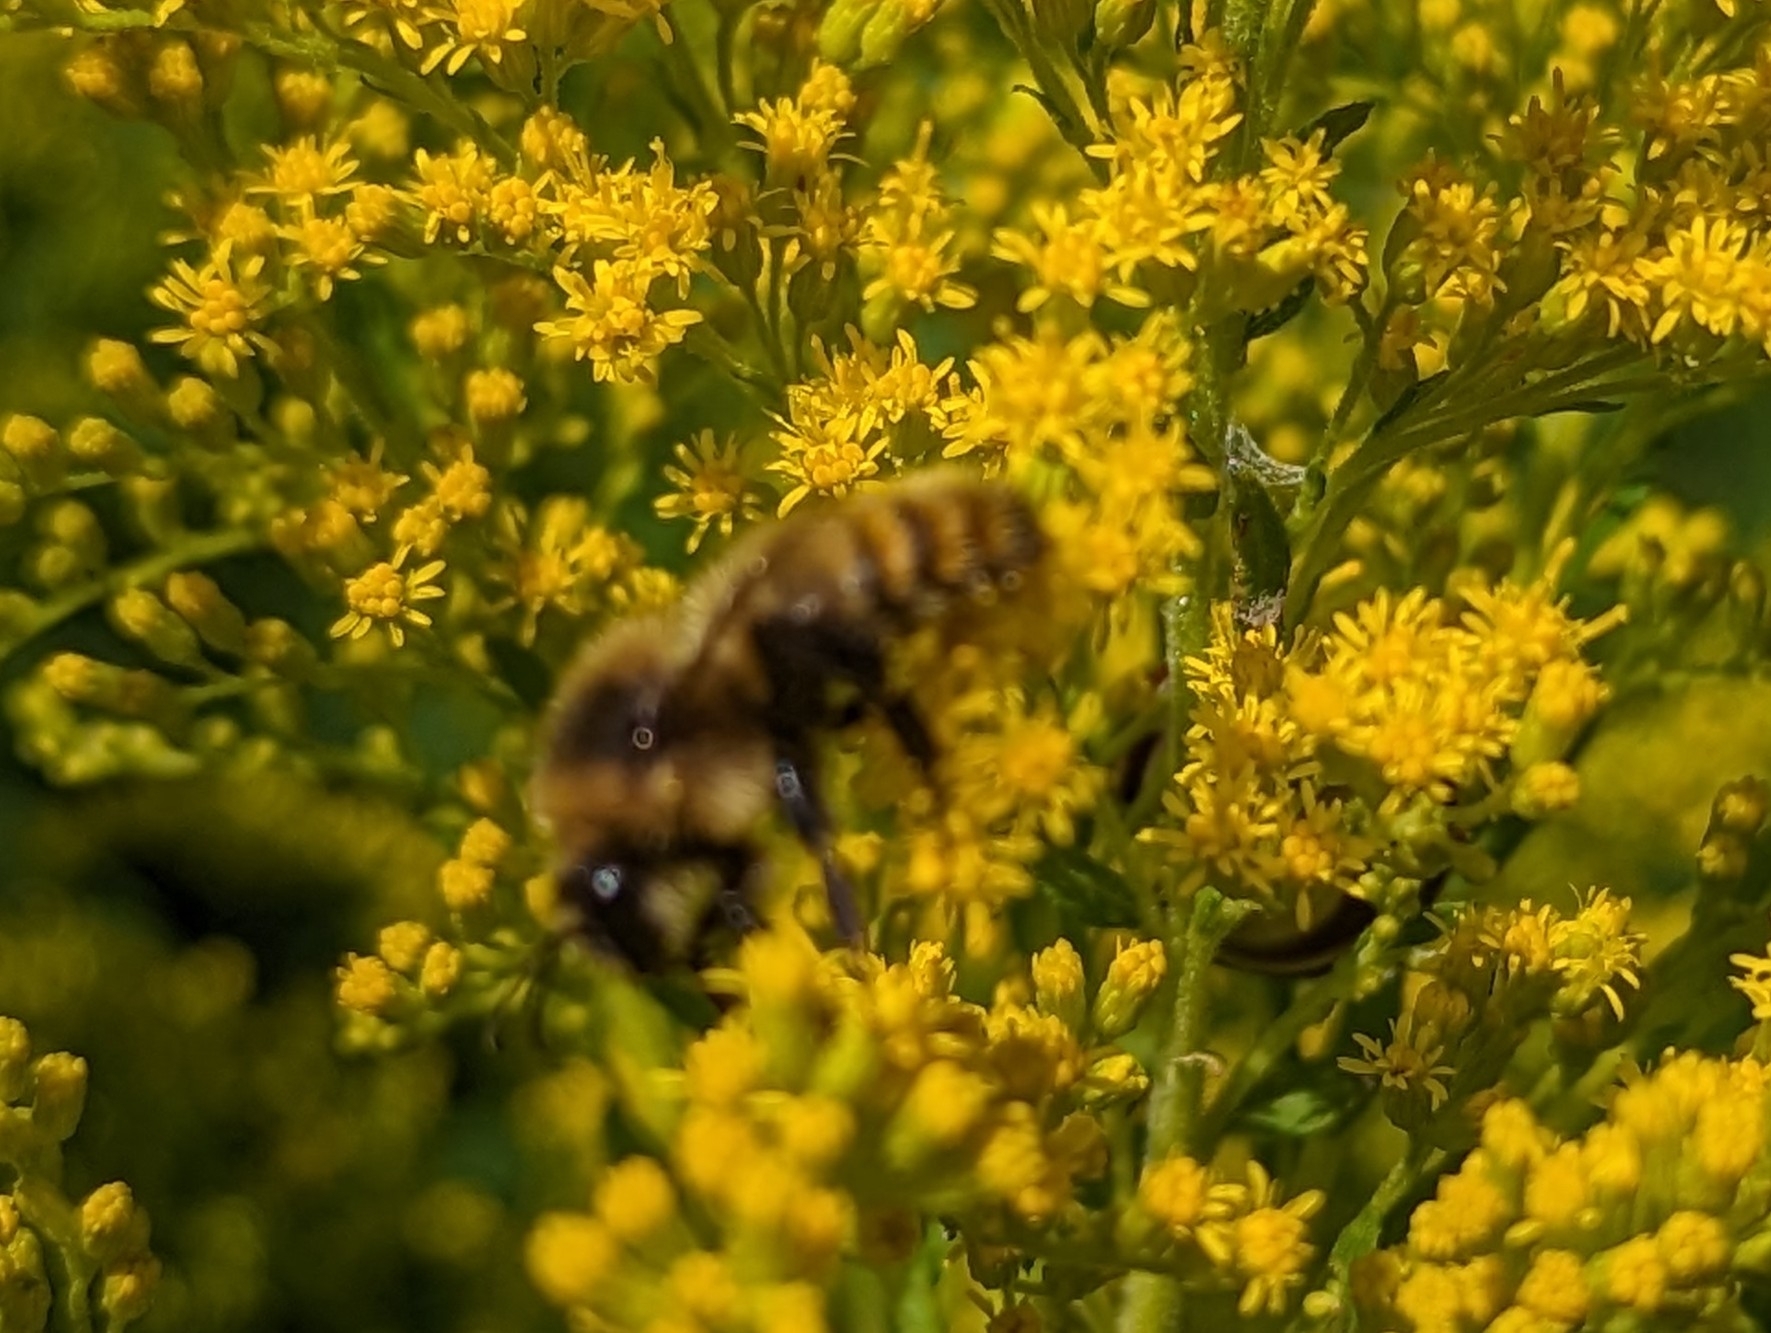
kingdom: Animalia
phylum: Arthropoda
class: Insecta
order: Hymenoptera
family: Apidae
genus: Bombus
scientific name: Bombus rufocinctus
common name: Red-belted bumble bee
